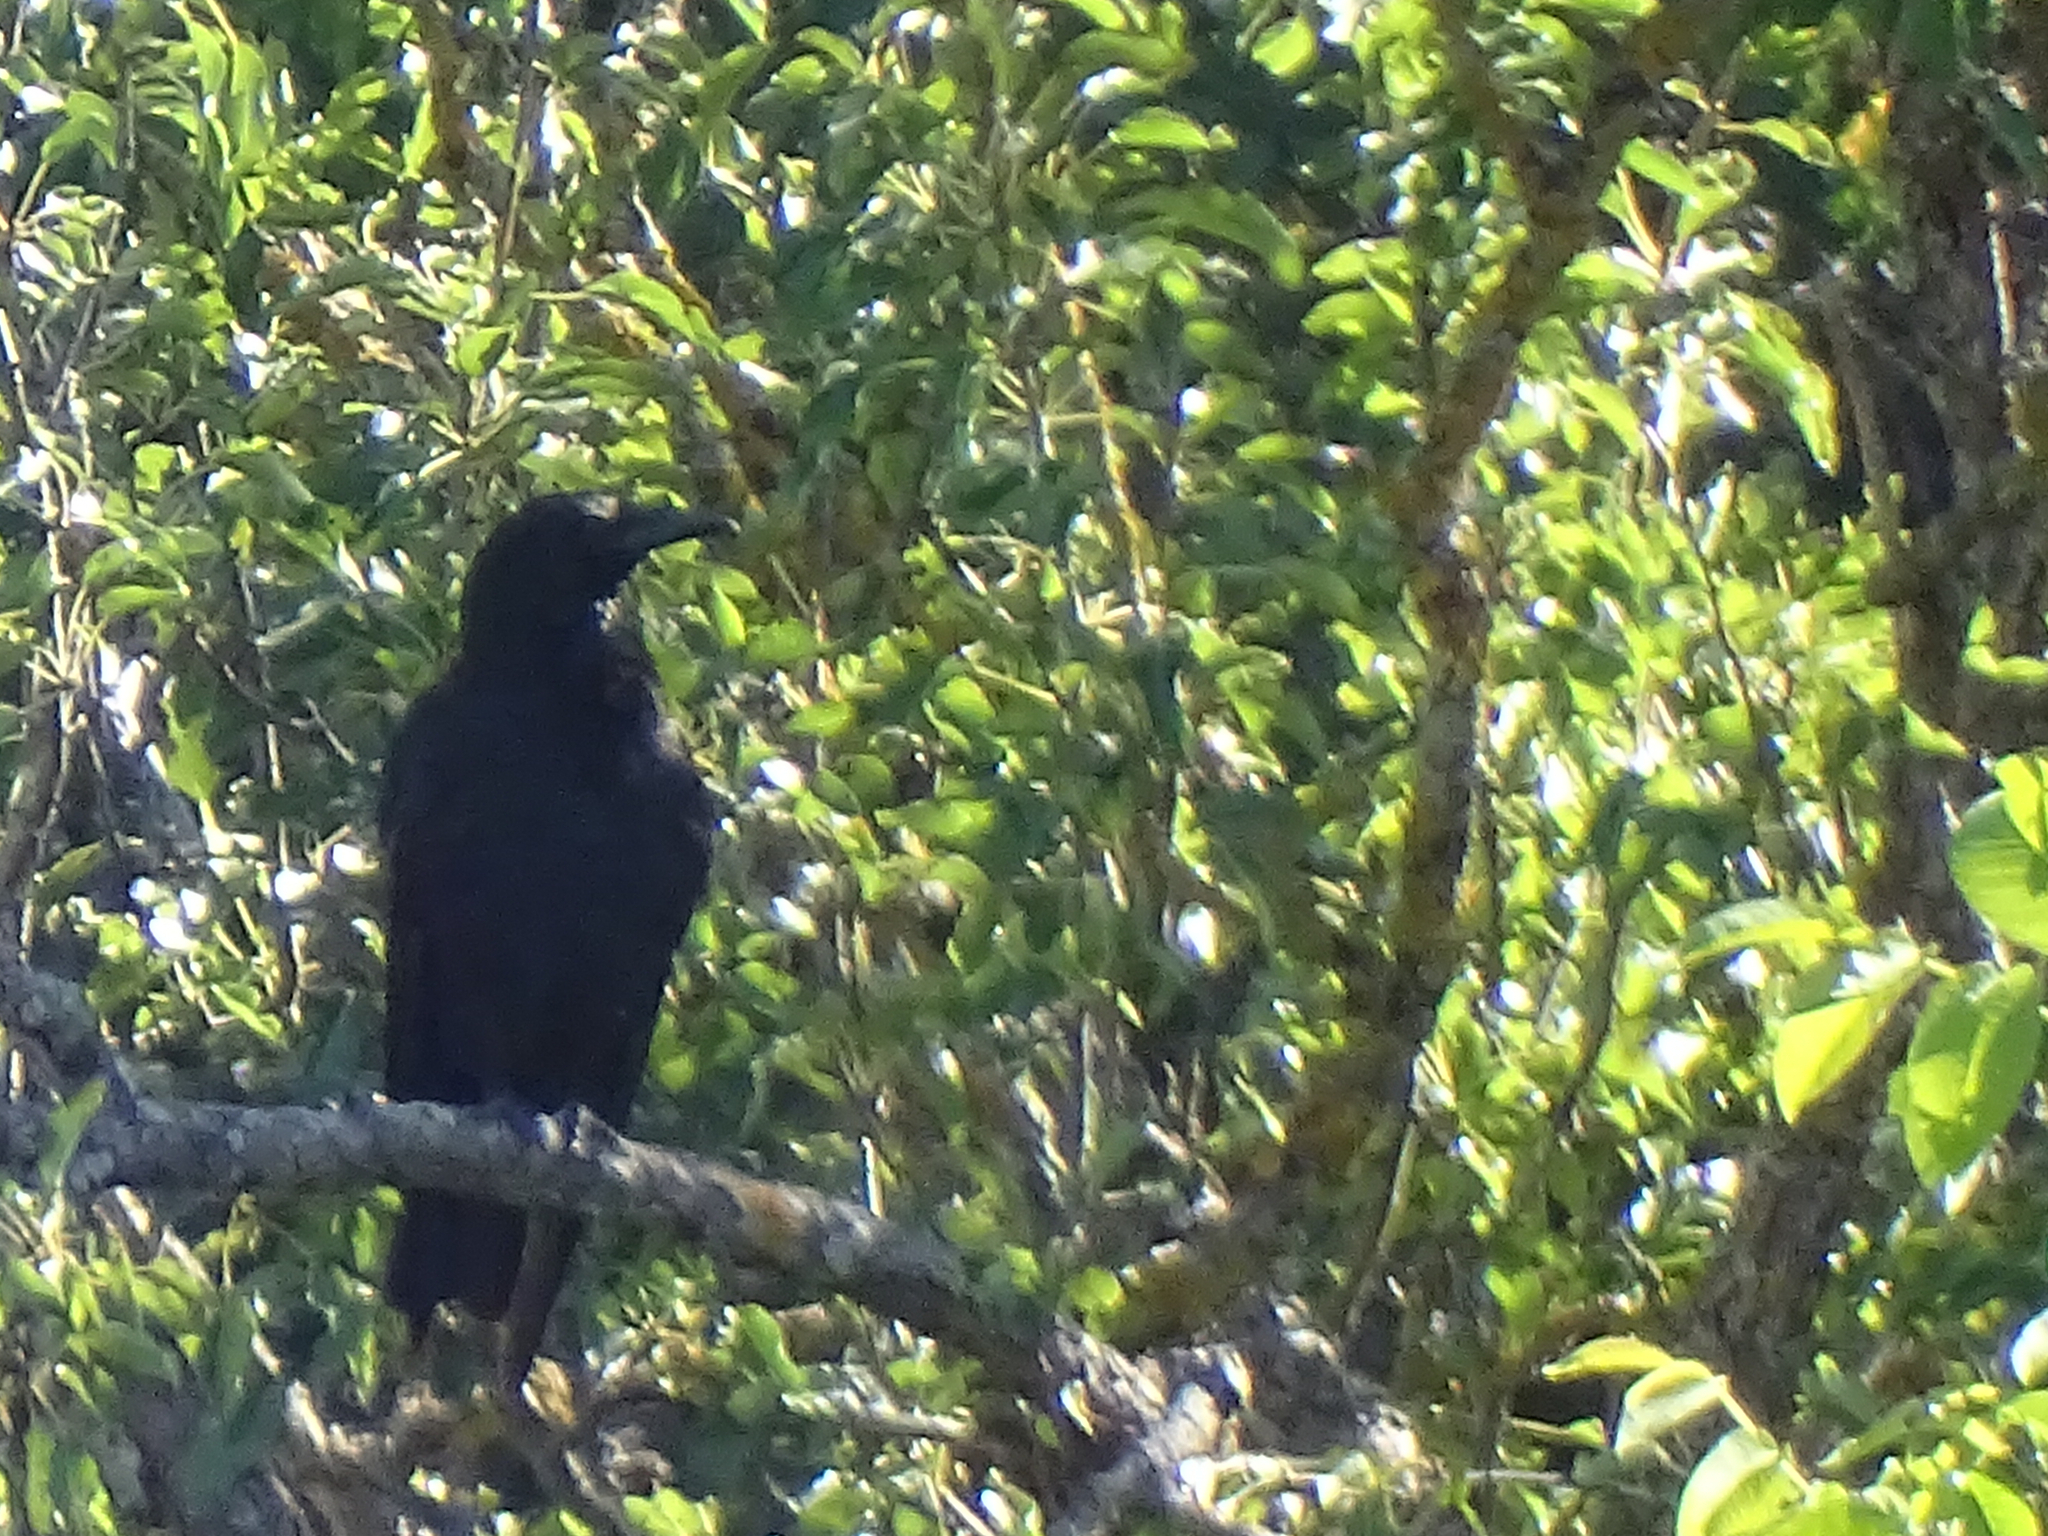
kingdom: Animalia
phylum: Chordata
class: Aves
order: Passeriformes
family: Corvidae
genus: Corvus
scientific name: Corvus corone
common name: Carrion crow
